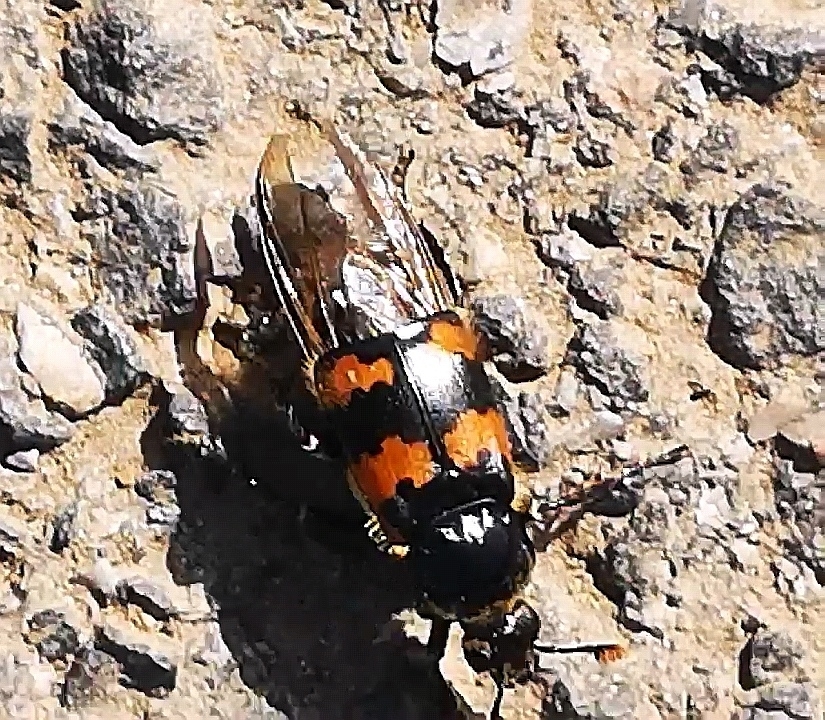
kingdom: Animalia
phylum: Arthropoda
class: Insecta
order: Coleoptera
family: Staphylinidae
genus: Nicrophorus
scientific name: Nicrophorus vespillo
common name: Common burying beetle
